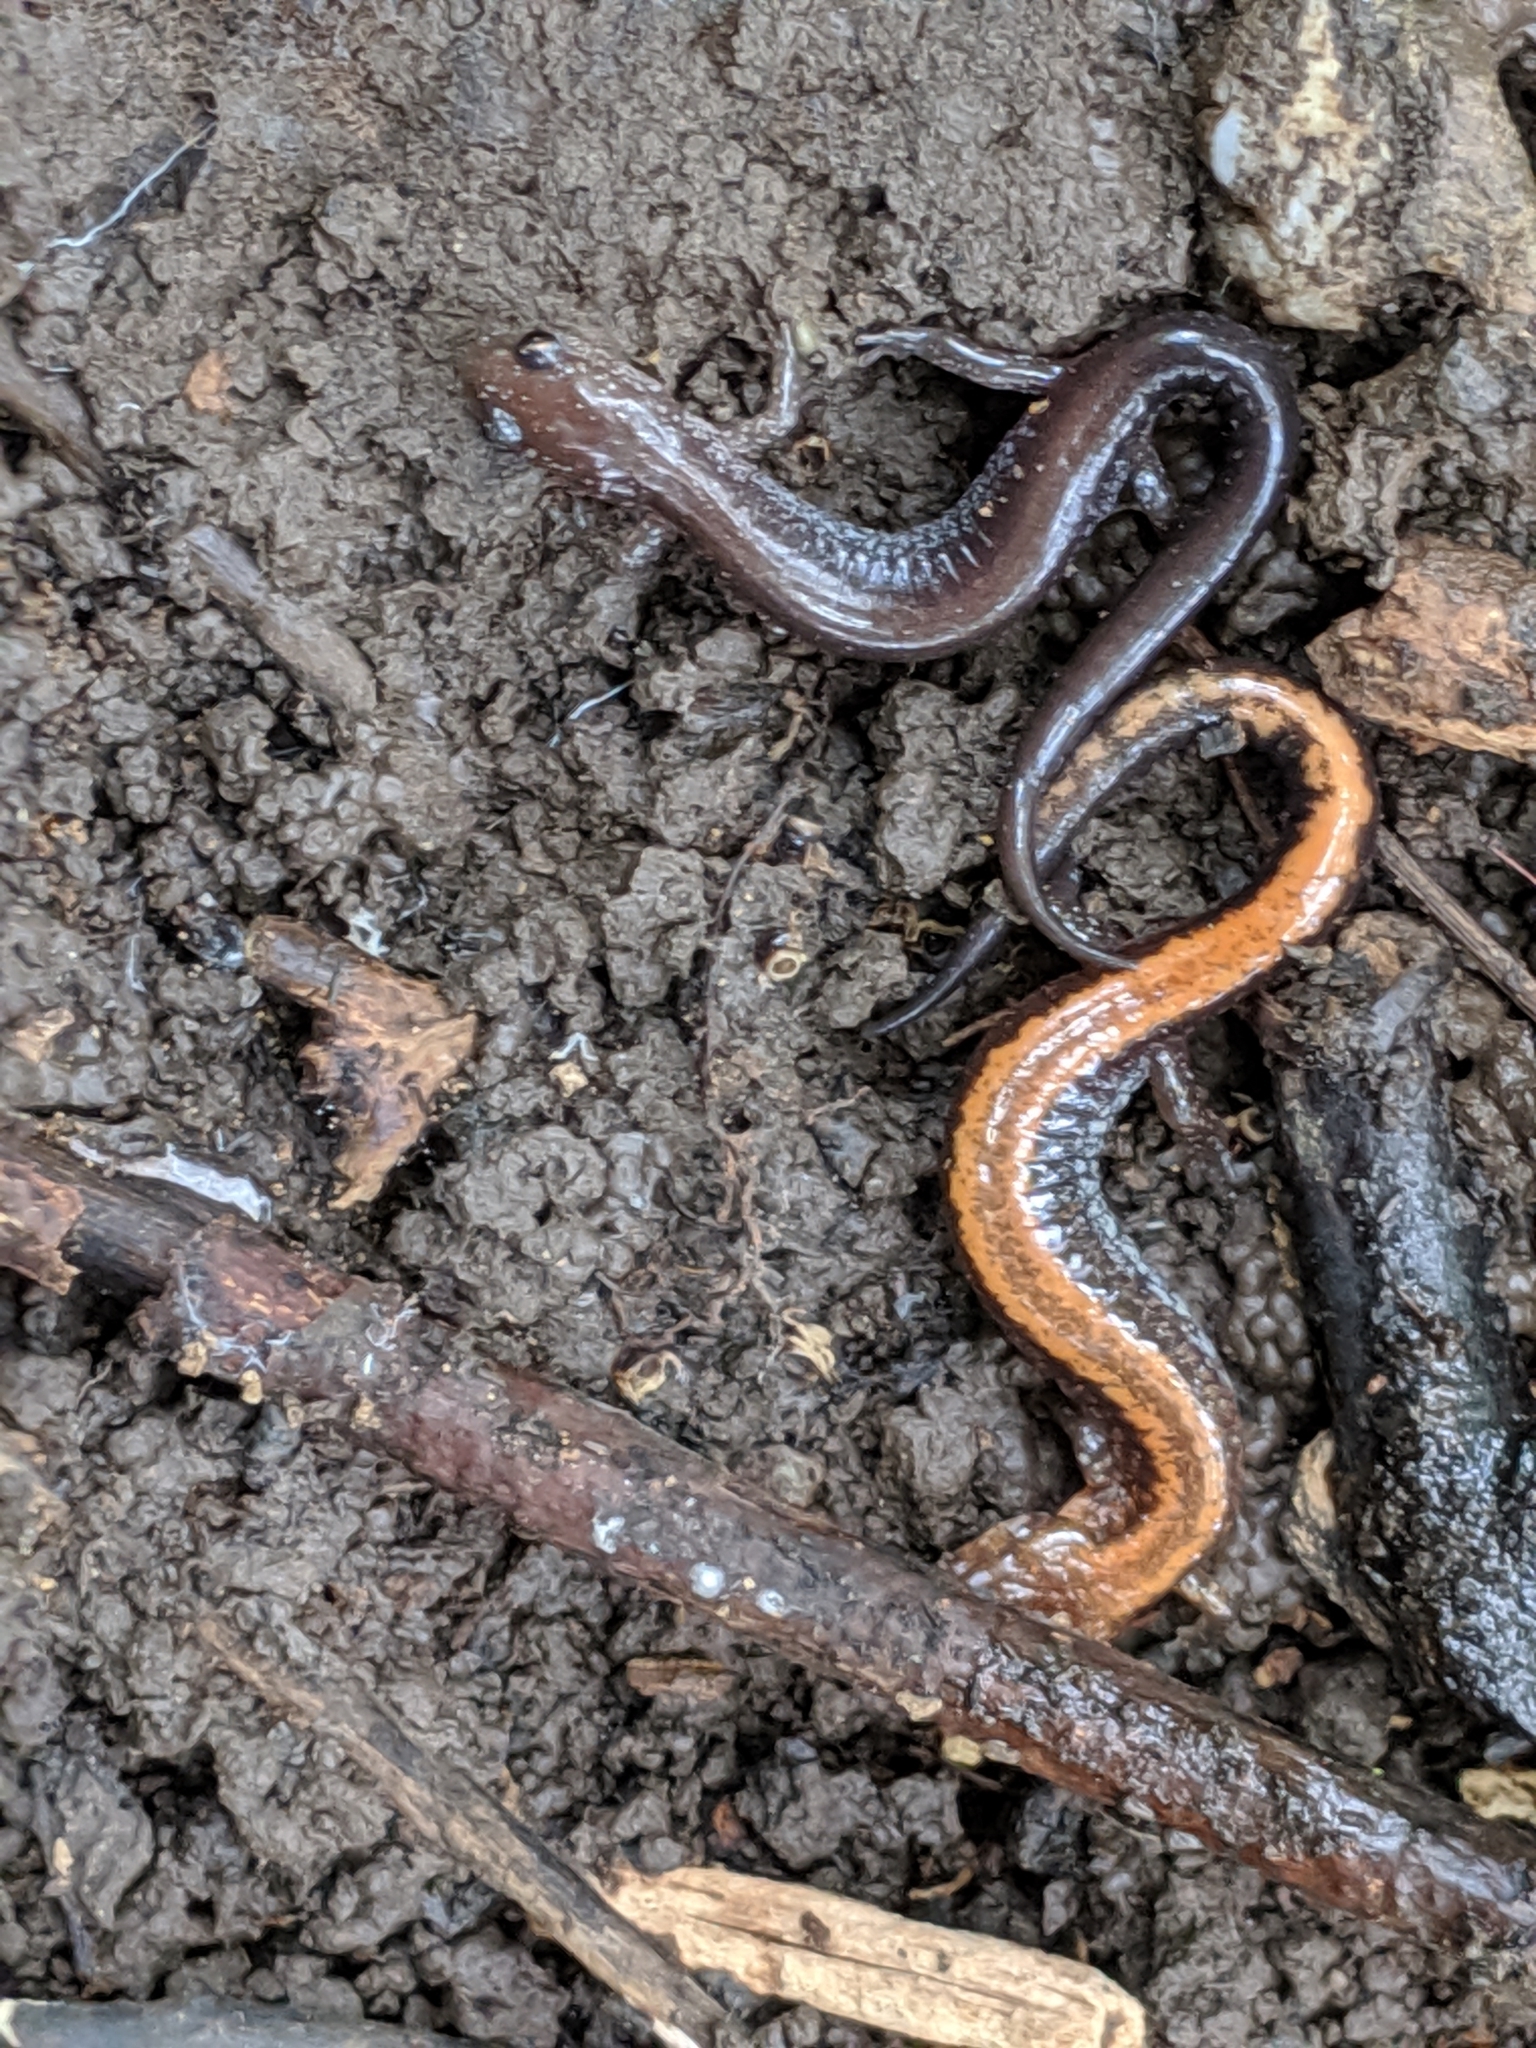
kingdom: Animalia
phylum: Chordata
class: Amphibia
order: Caudata
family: Plethodontidae
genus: Plethodon
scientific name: Plethodon cinereus
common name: Redback salamander
